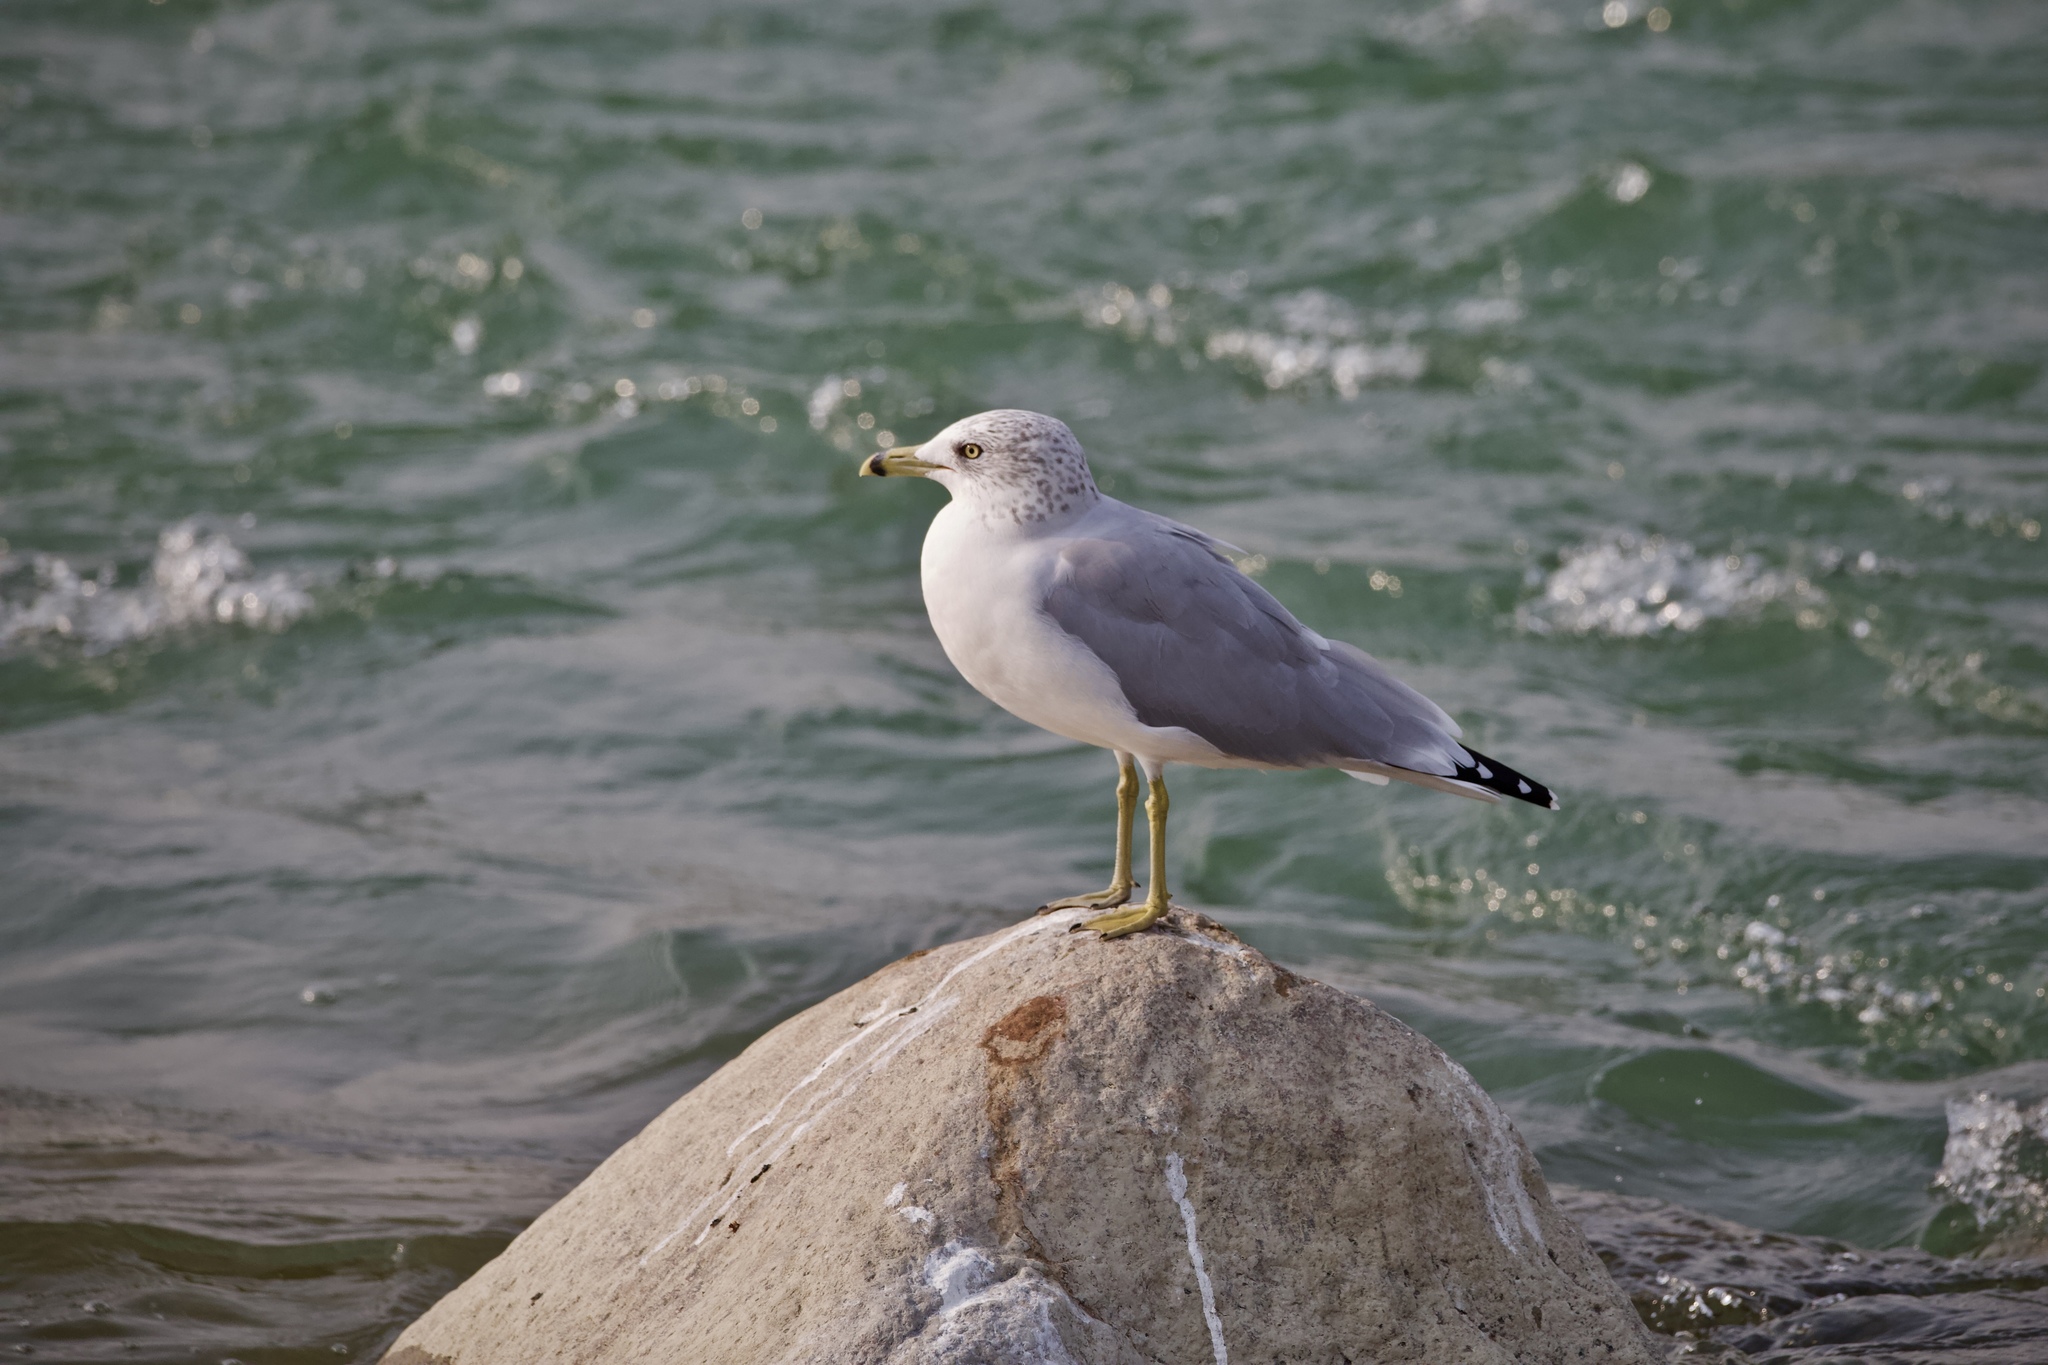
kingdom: Animalia
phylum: Chordata
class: Aves
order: Charadriiformes
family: Laridae
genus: Larus
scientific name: Larus delawarensis
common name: Ring-billed gull
